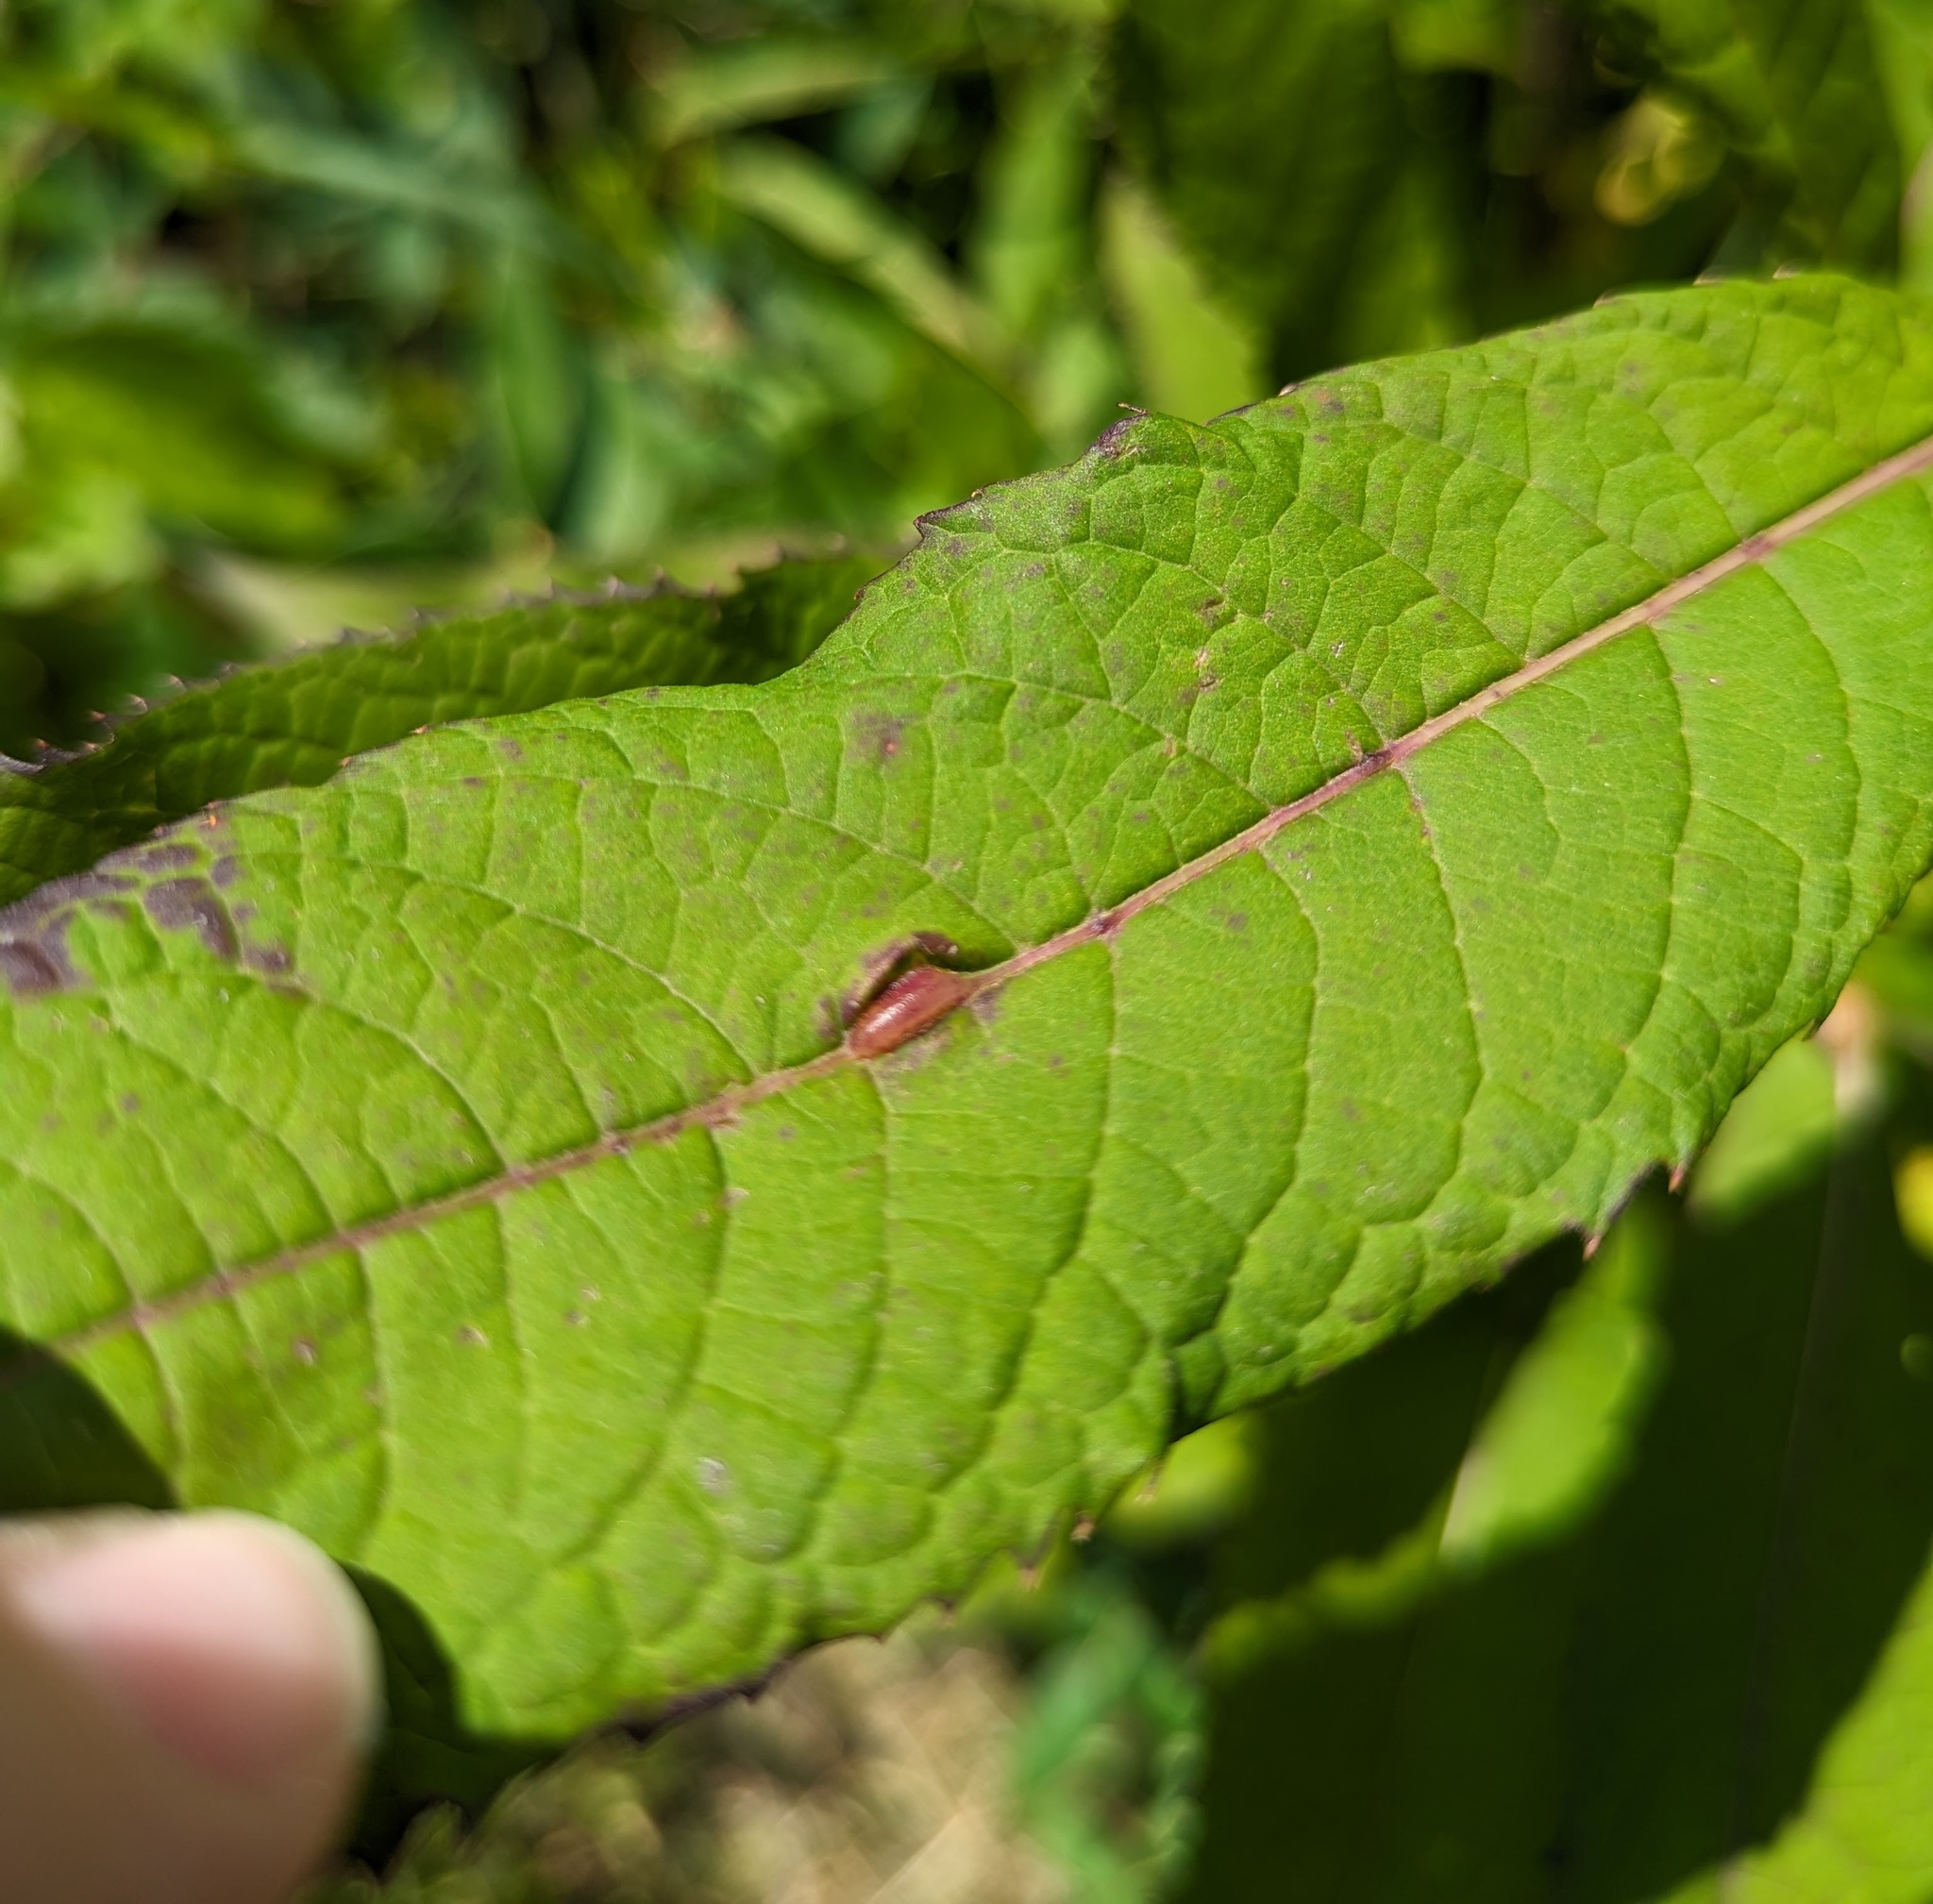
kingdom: Animalia
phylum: Arthropoda
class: Insecta
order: Diptera
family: Cecidomyiidae
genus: Neolasioptera
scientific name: Neolasioptera vernoniae
